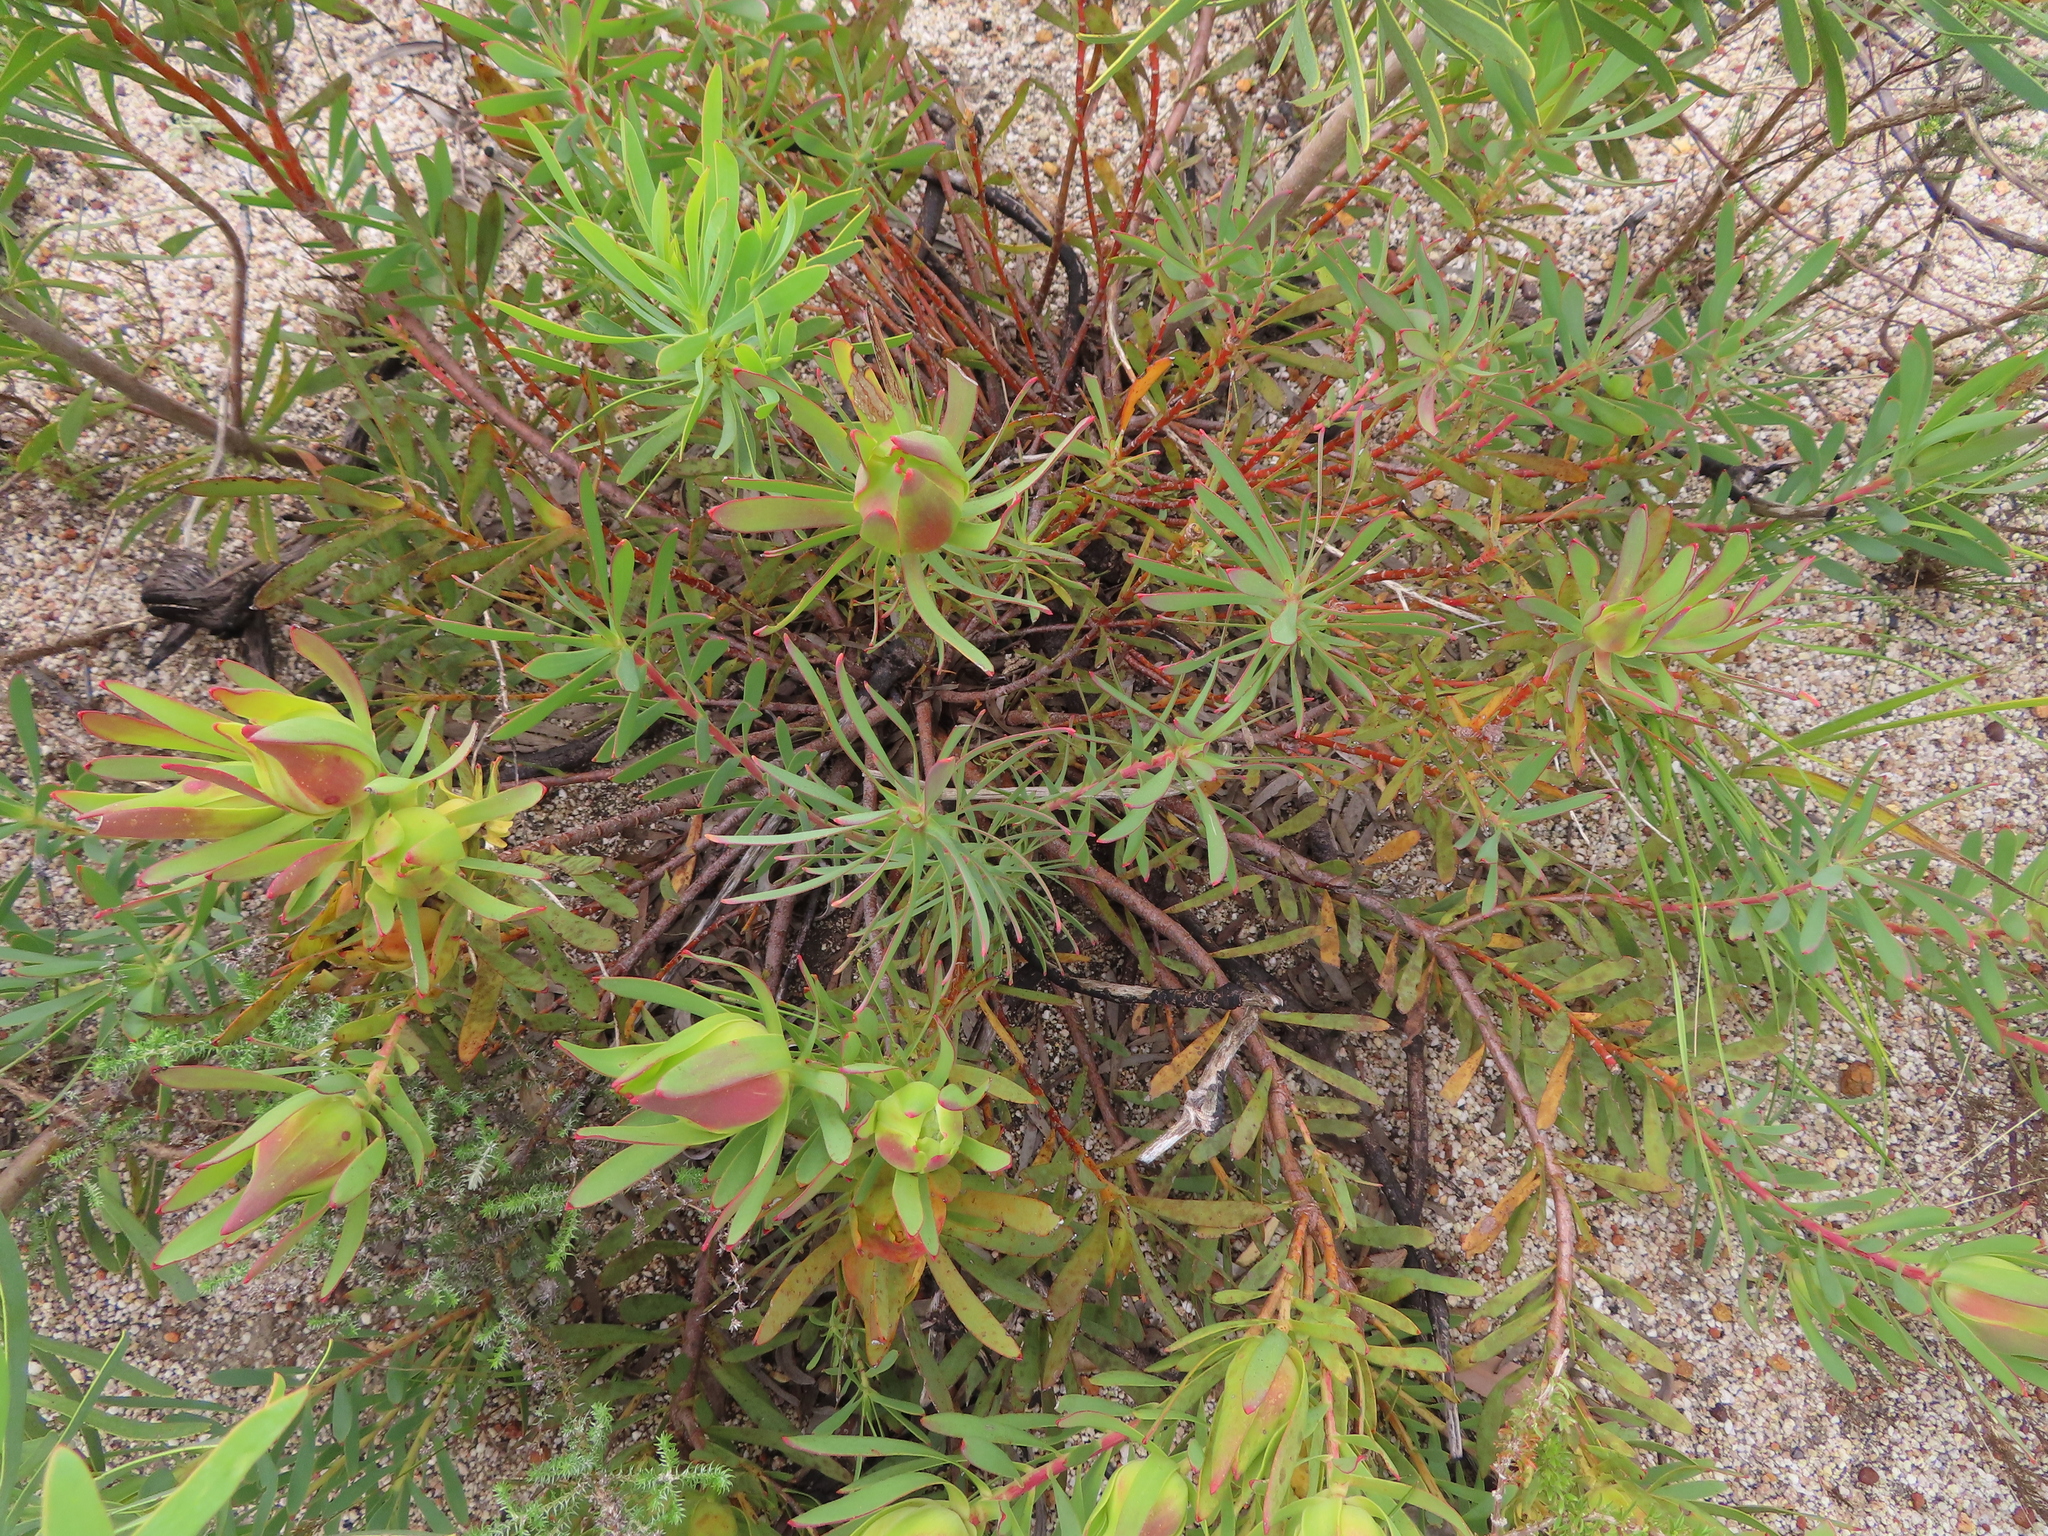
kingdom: Plantae
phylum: Tracheophyta
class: Magnoliopsida
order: Proteales
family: Proteaceae
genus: Leucadendron
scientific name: Leucadendron salignum
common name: Common sunshine conebush
